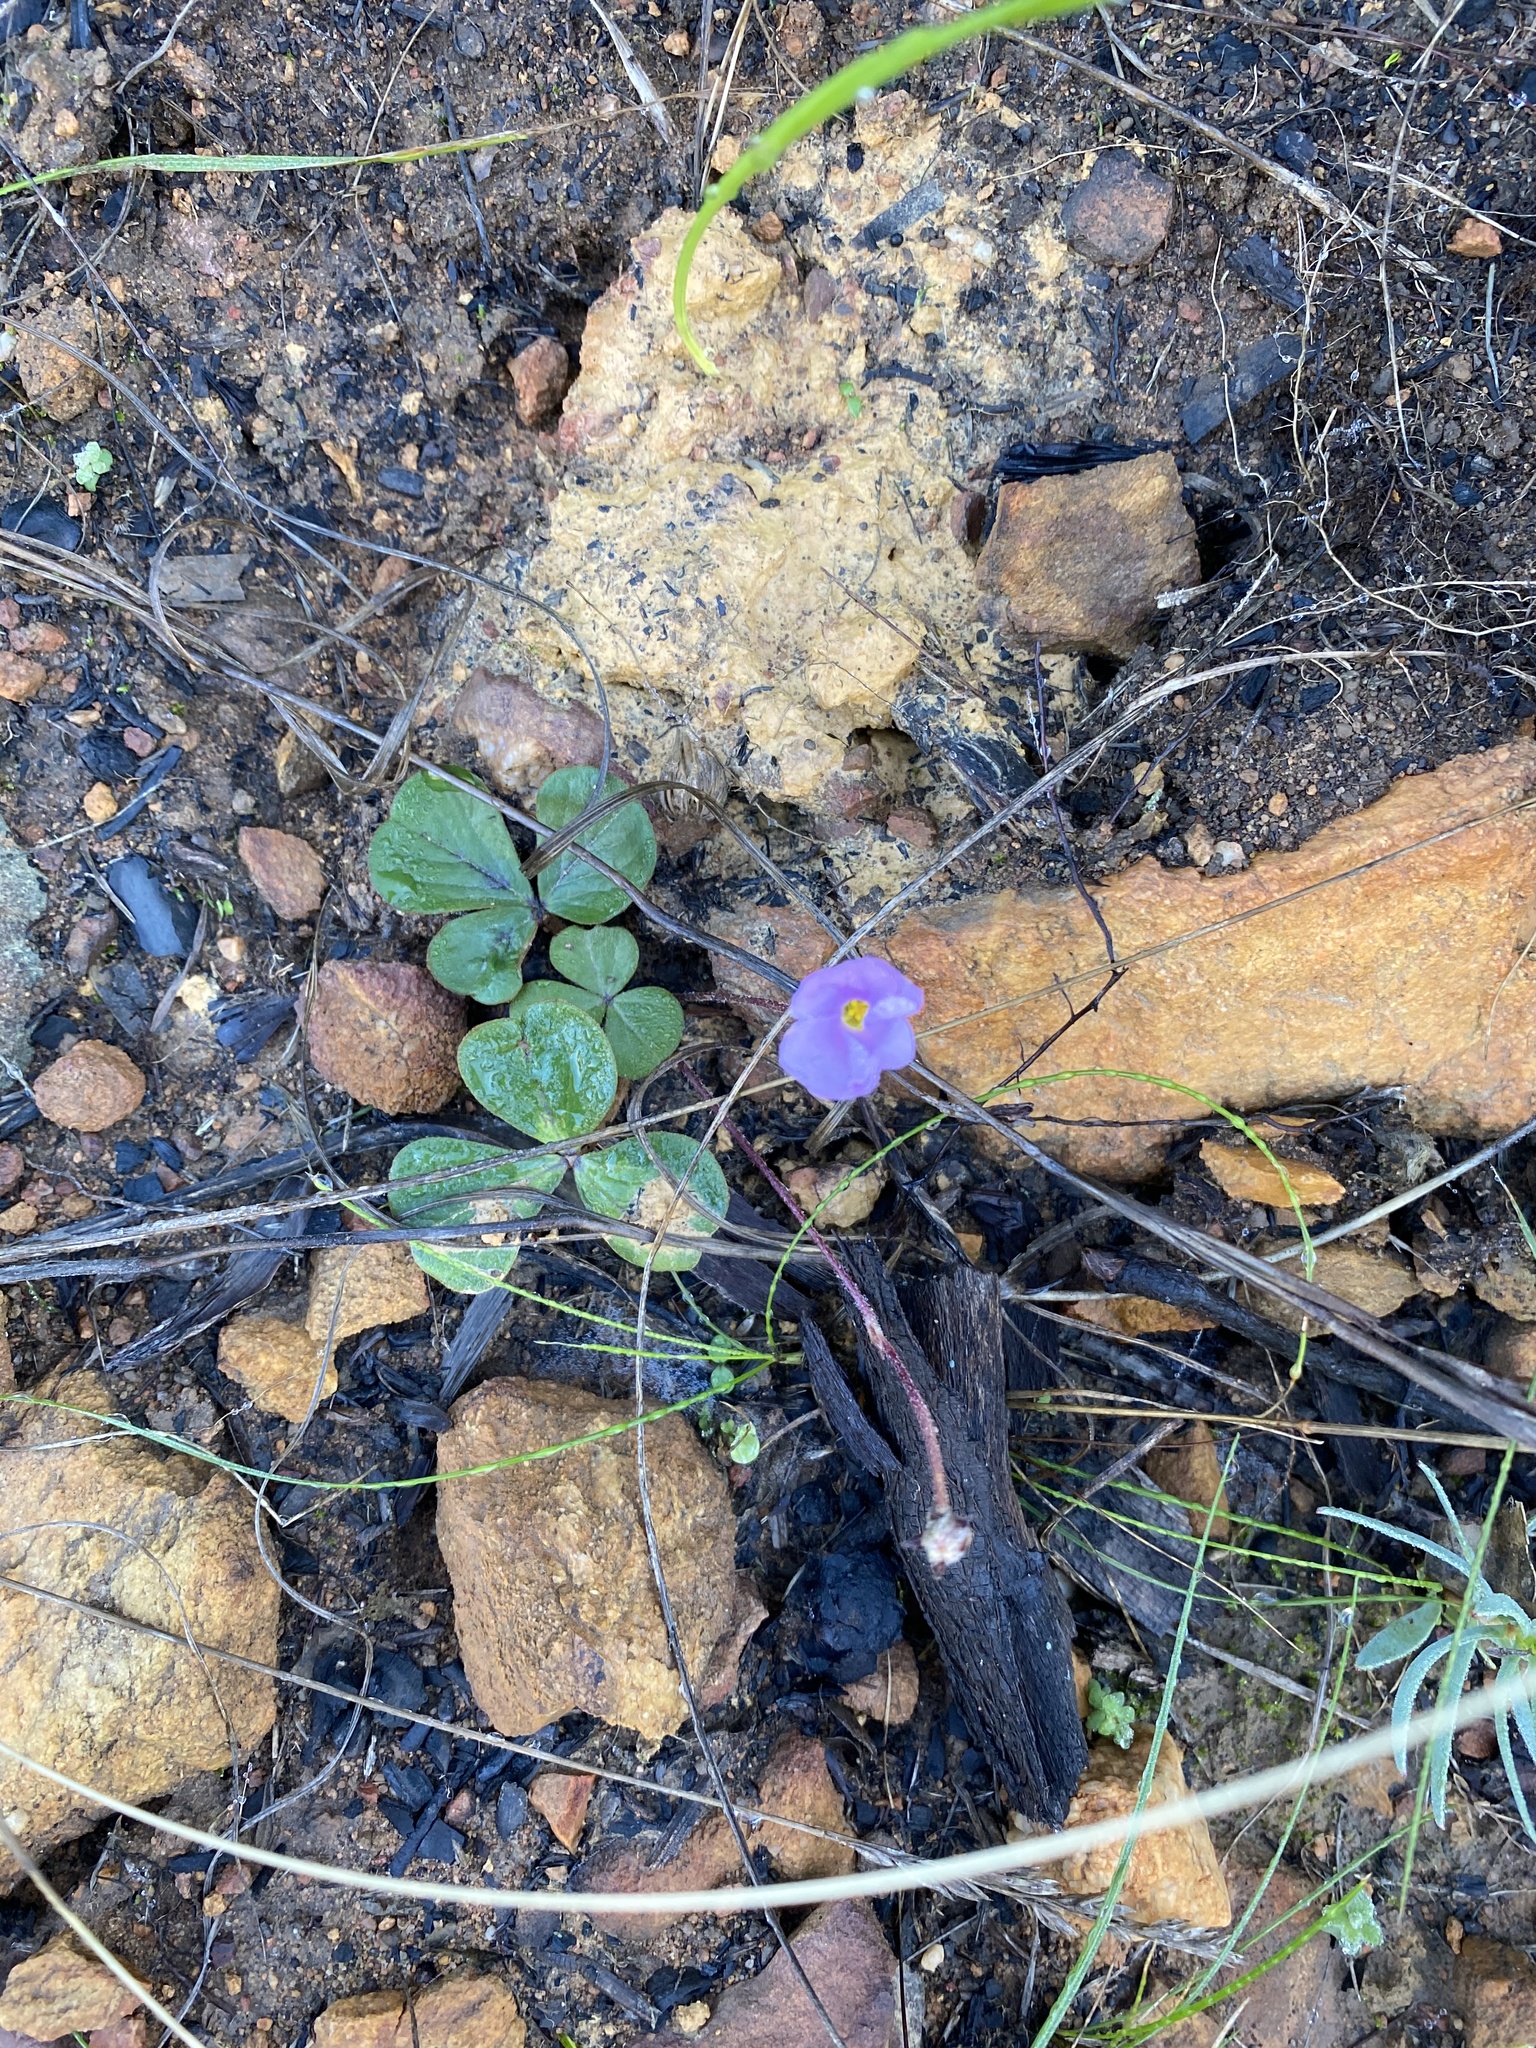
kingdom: Plantae
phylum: Tracheophyta
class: Magnoliopsida
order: Oxalidales
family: Oxalidaceae
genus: Oxalis
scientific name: Oxalis truncatula
